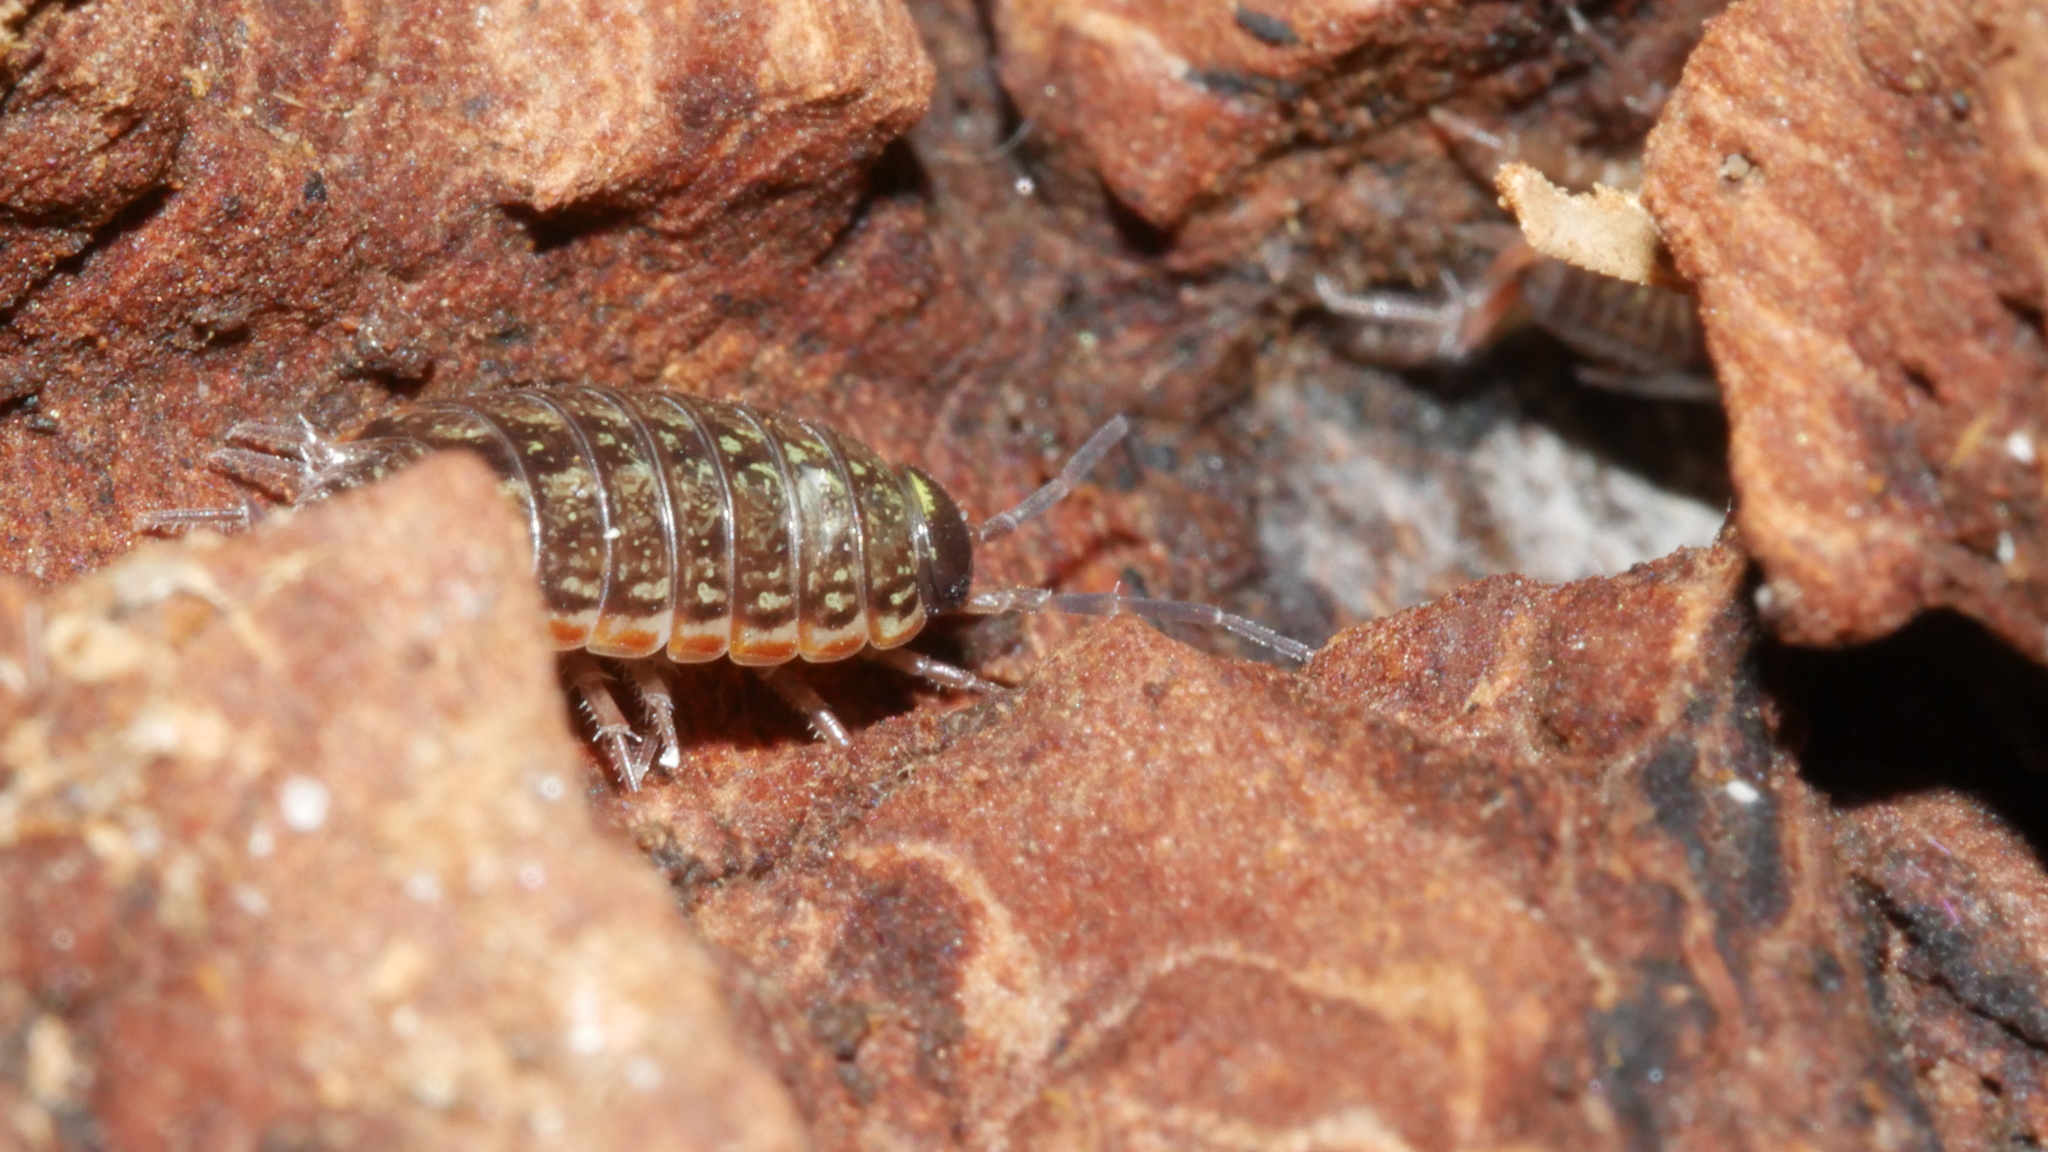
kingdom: Animalia
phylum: Arthropoda
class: Malacostraca
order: Isopoda
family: Philosciidae
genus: Philoscia
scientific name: Philoscia muscorum
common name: Common striped woodlouse
